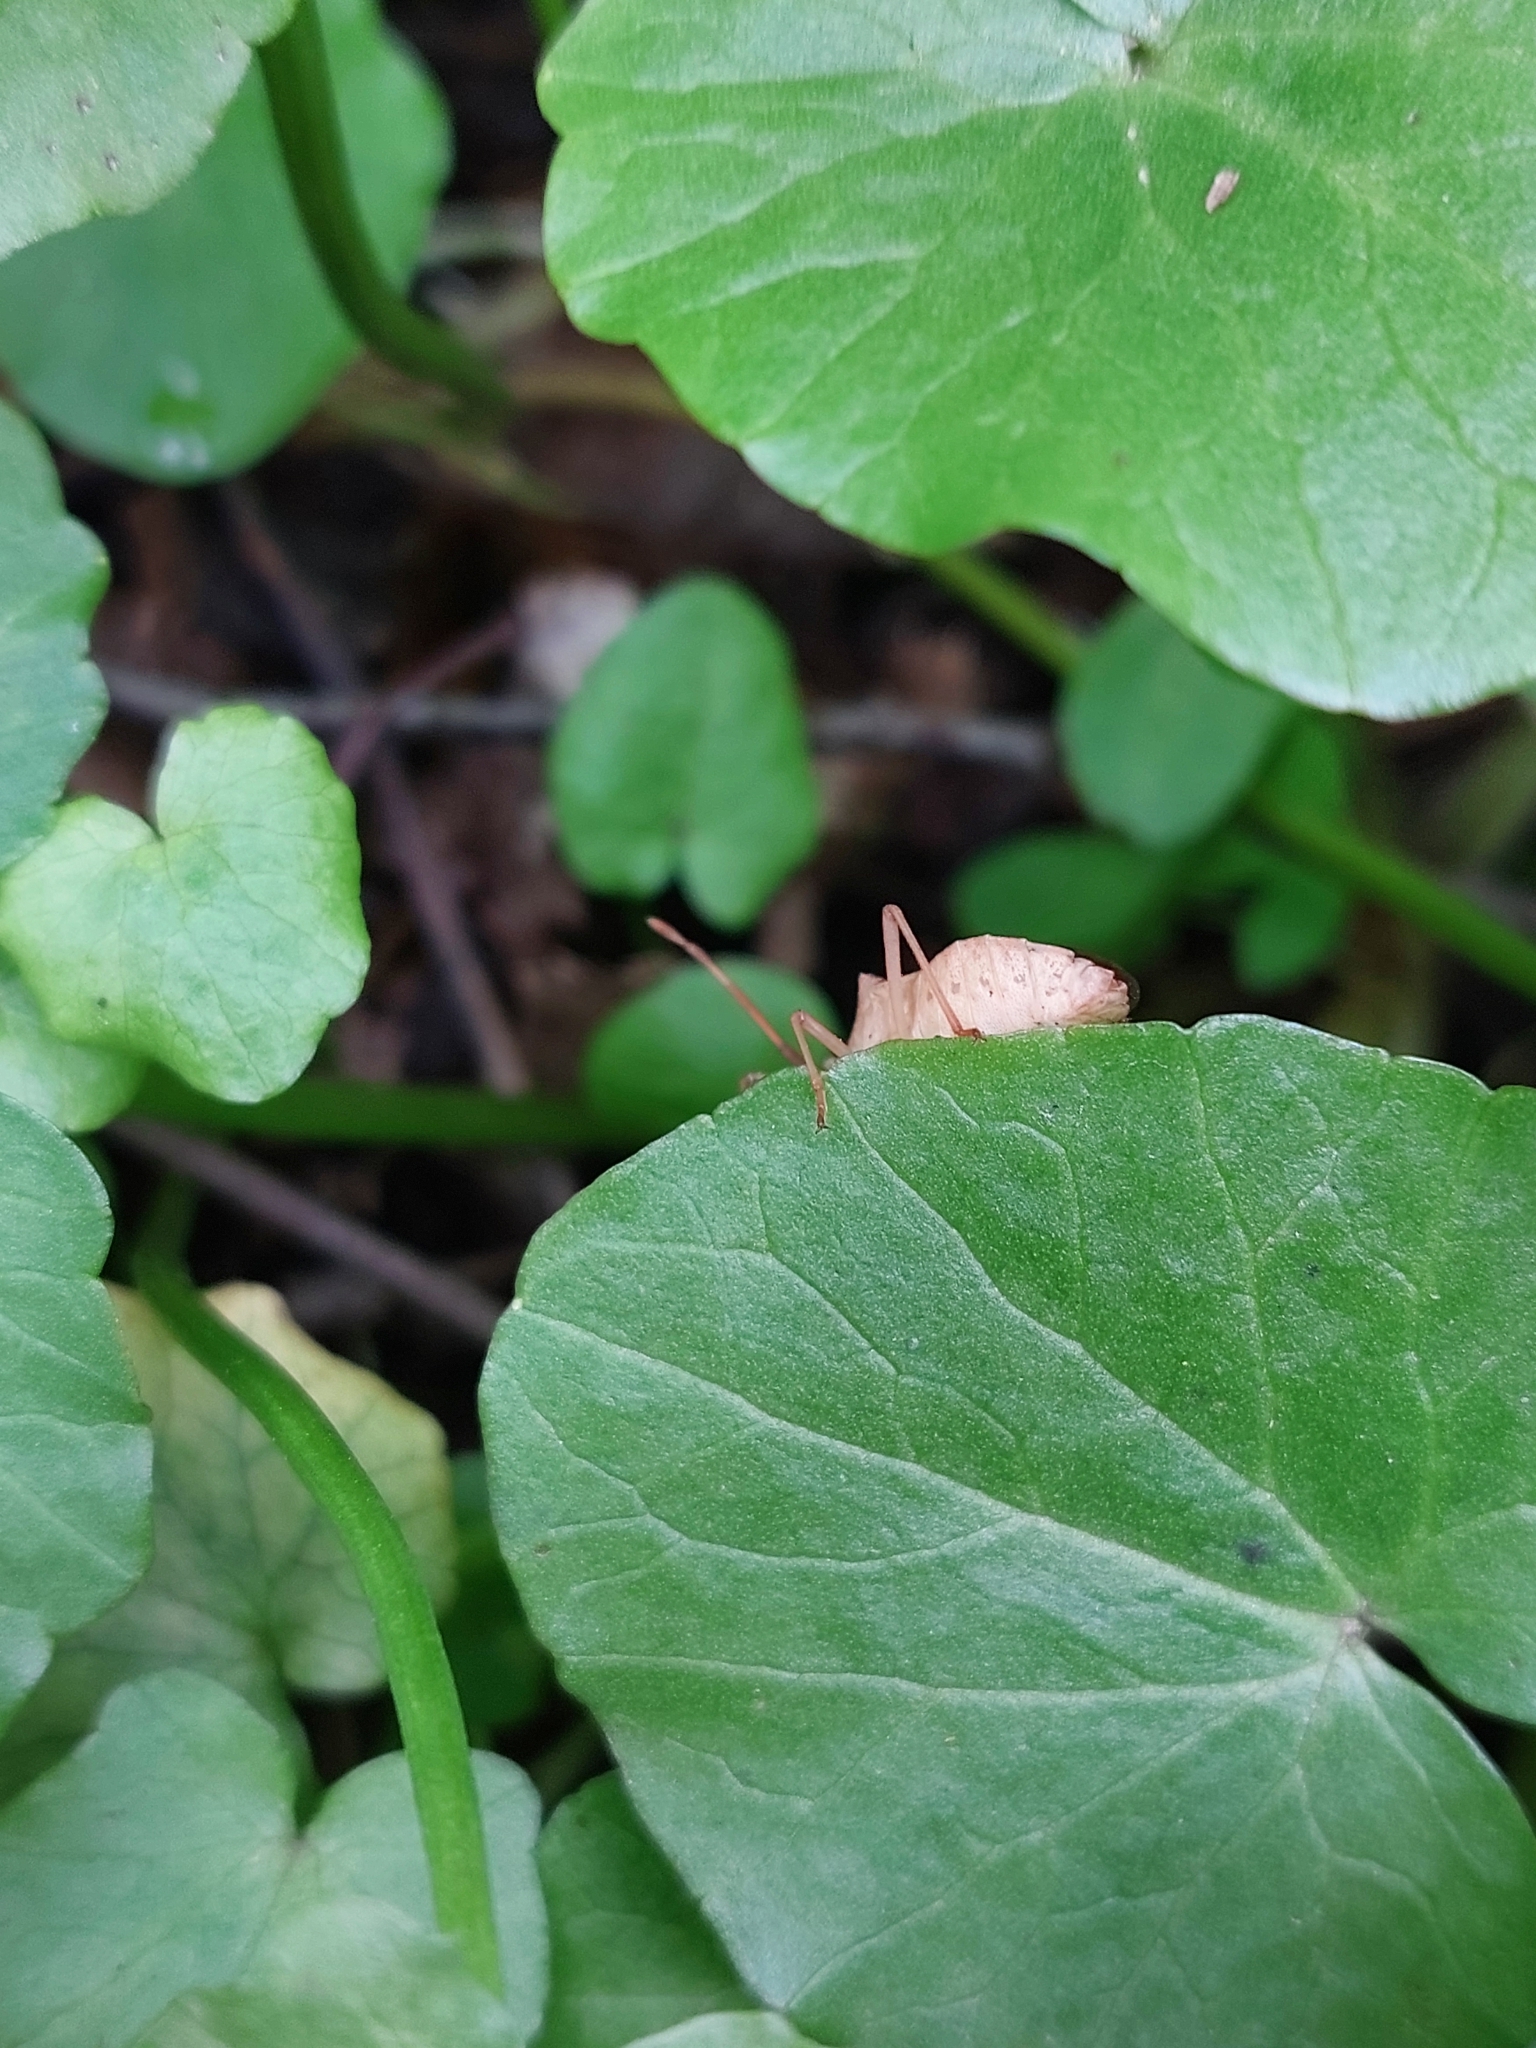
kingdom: Animalia
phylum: Arthropoda
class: Insecta
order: Hemiptera
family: Coreidae
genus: Gonocerus
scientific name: Gonocerus acuteangulatus
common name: Box bug
